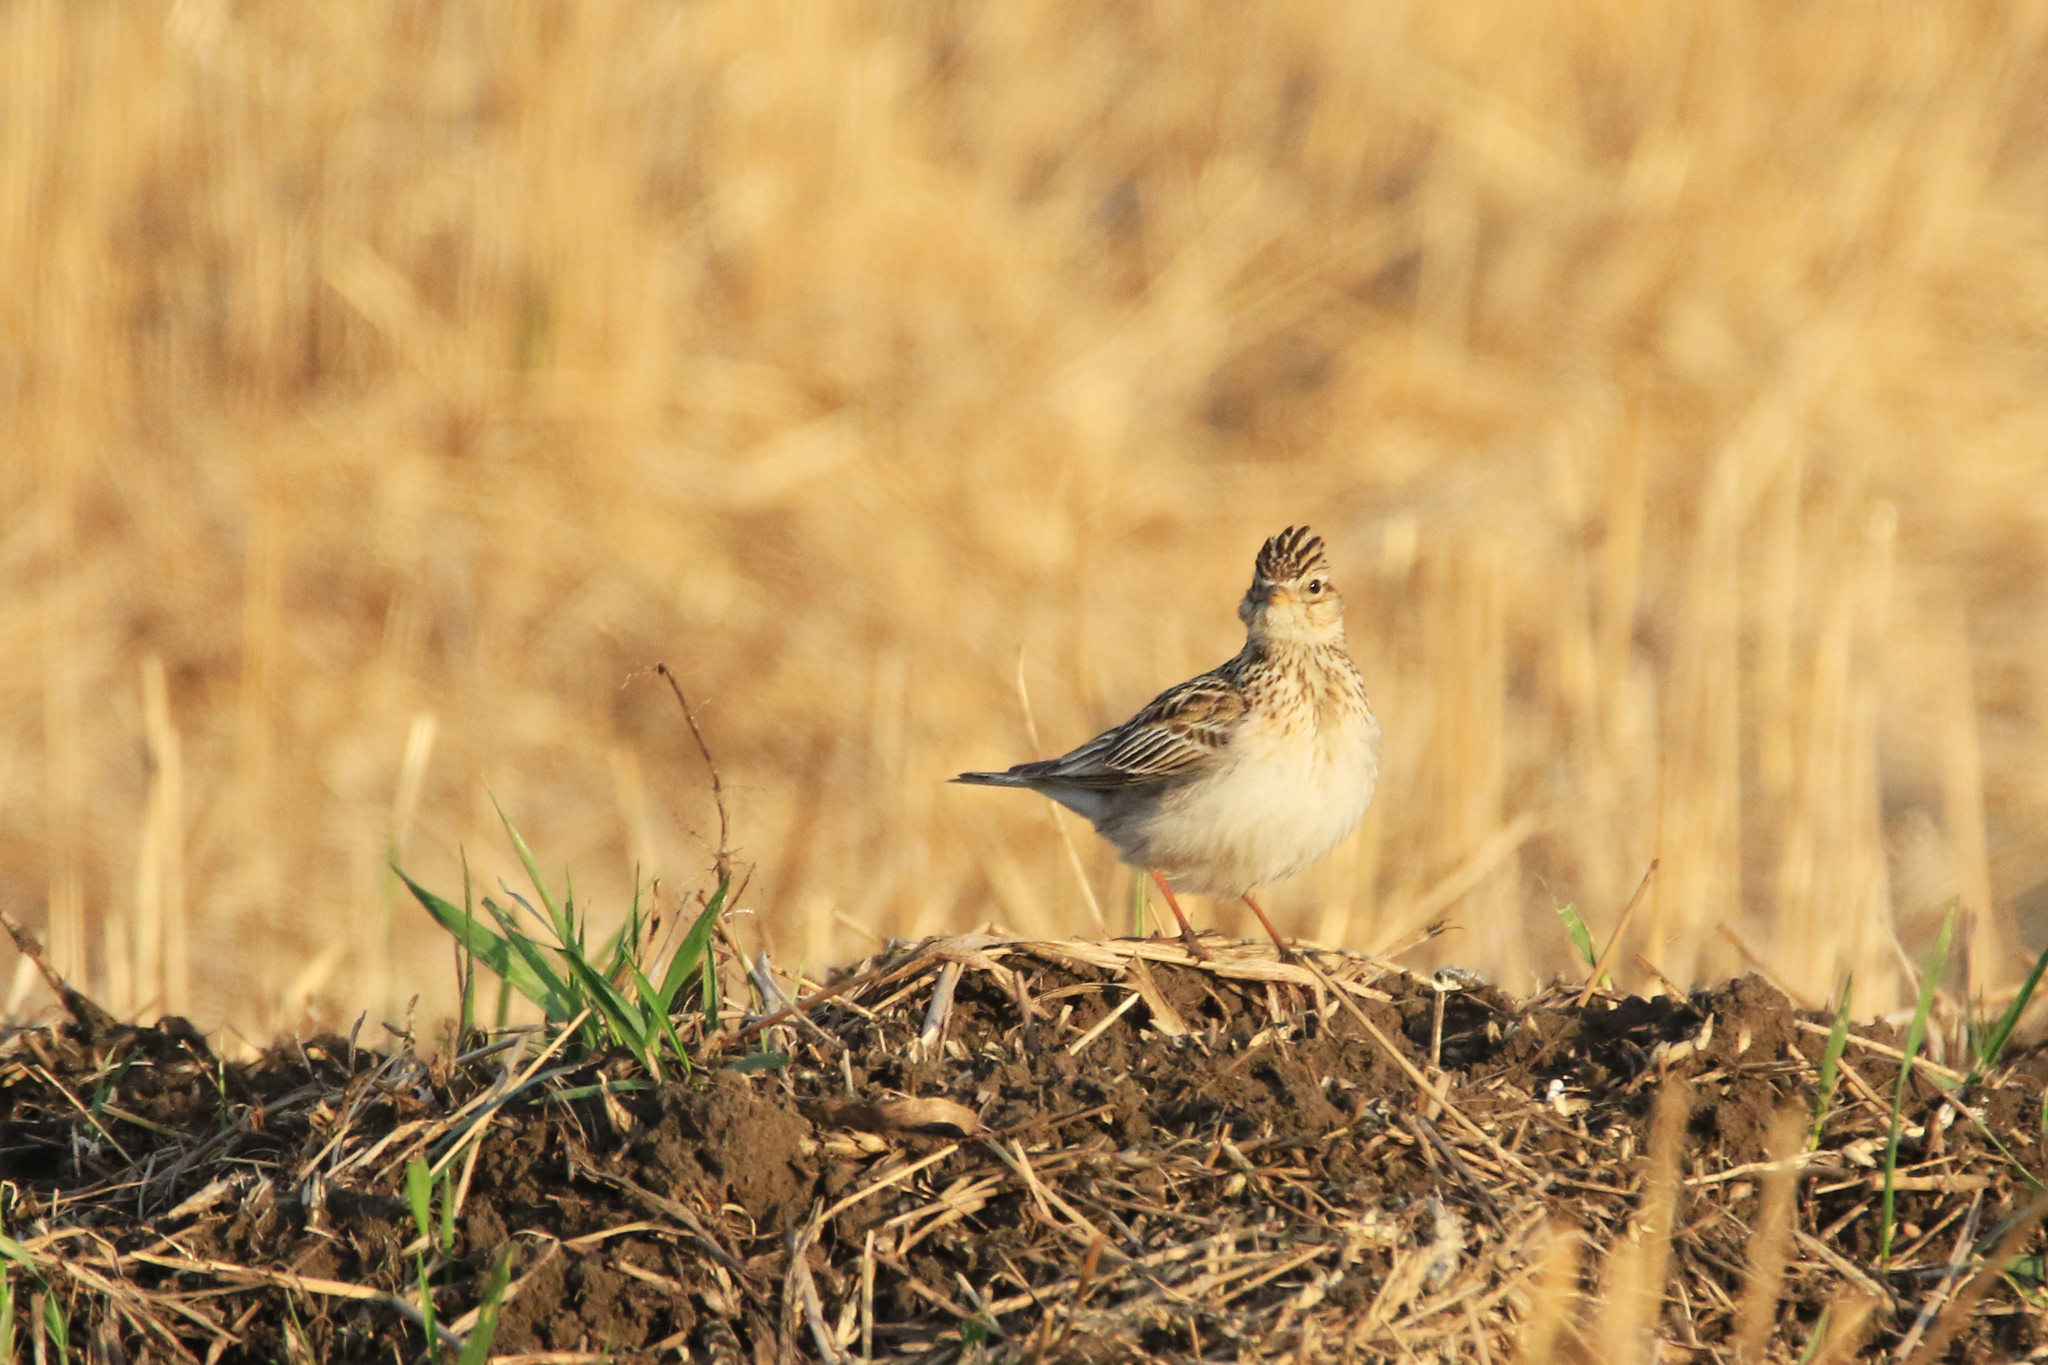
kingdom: Animalia
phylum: Chordata
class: Aves
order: Passeriformes
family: Alaudidae
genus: Alauda
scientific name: Alauda arvensis
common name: Eurasian skylark
